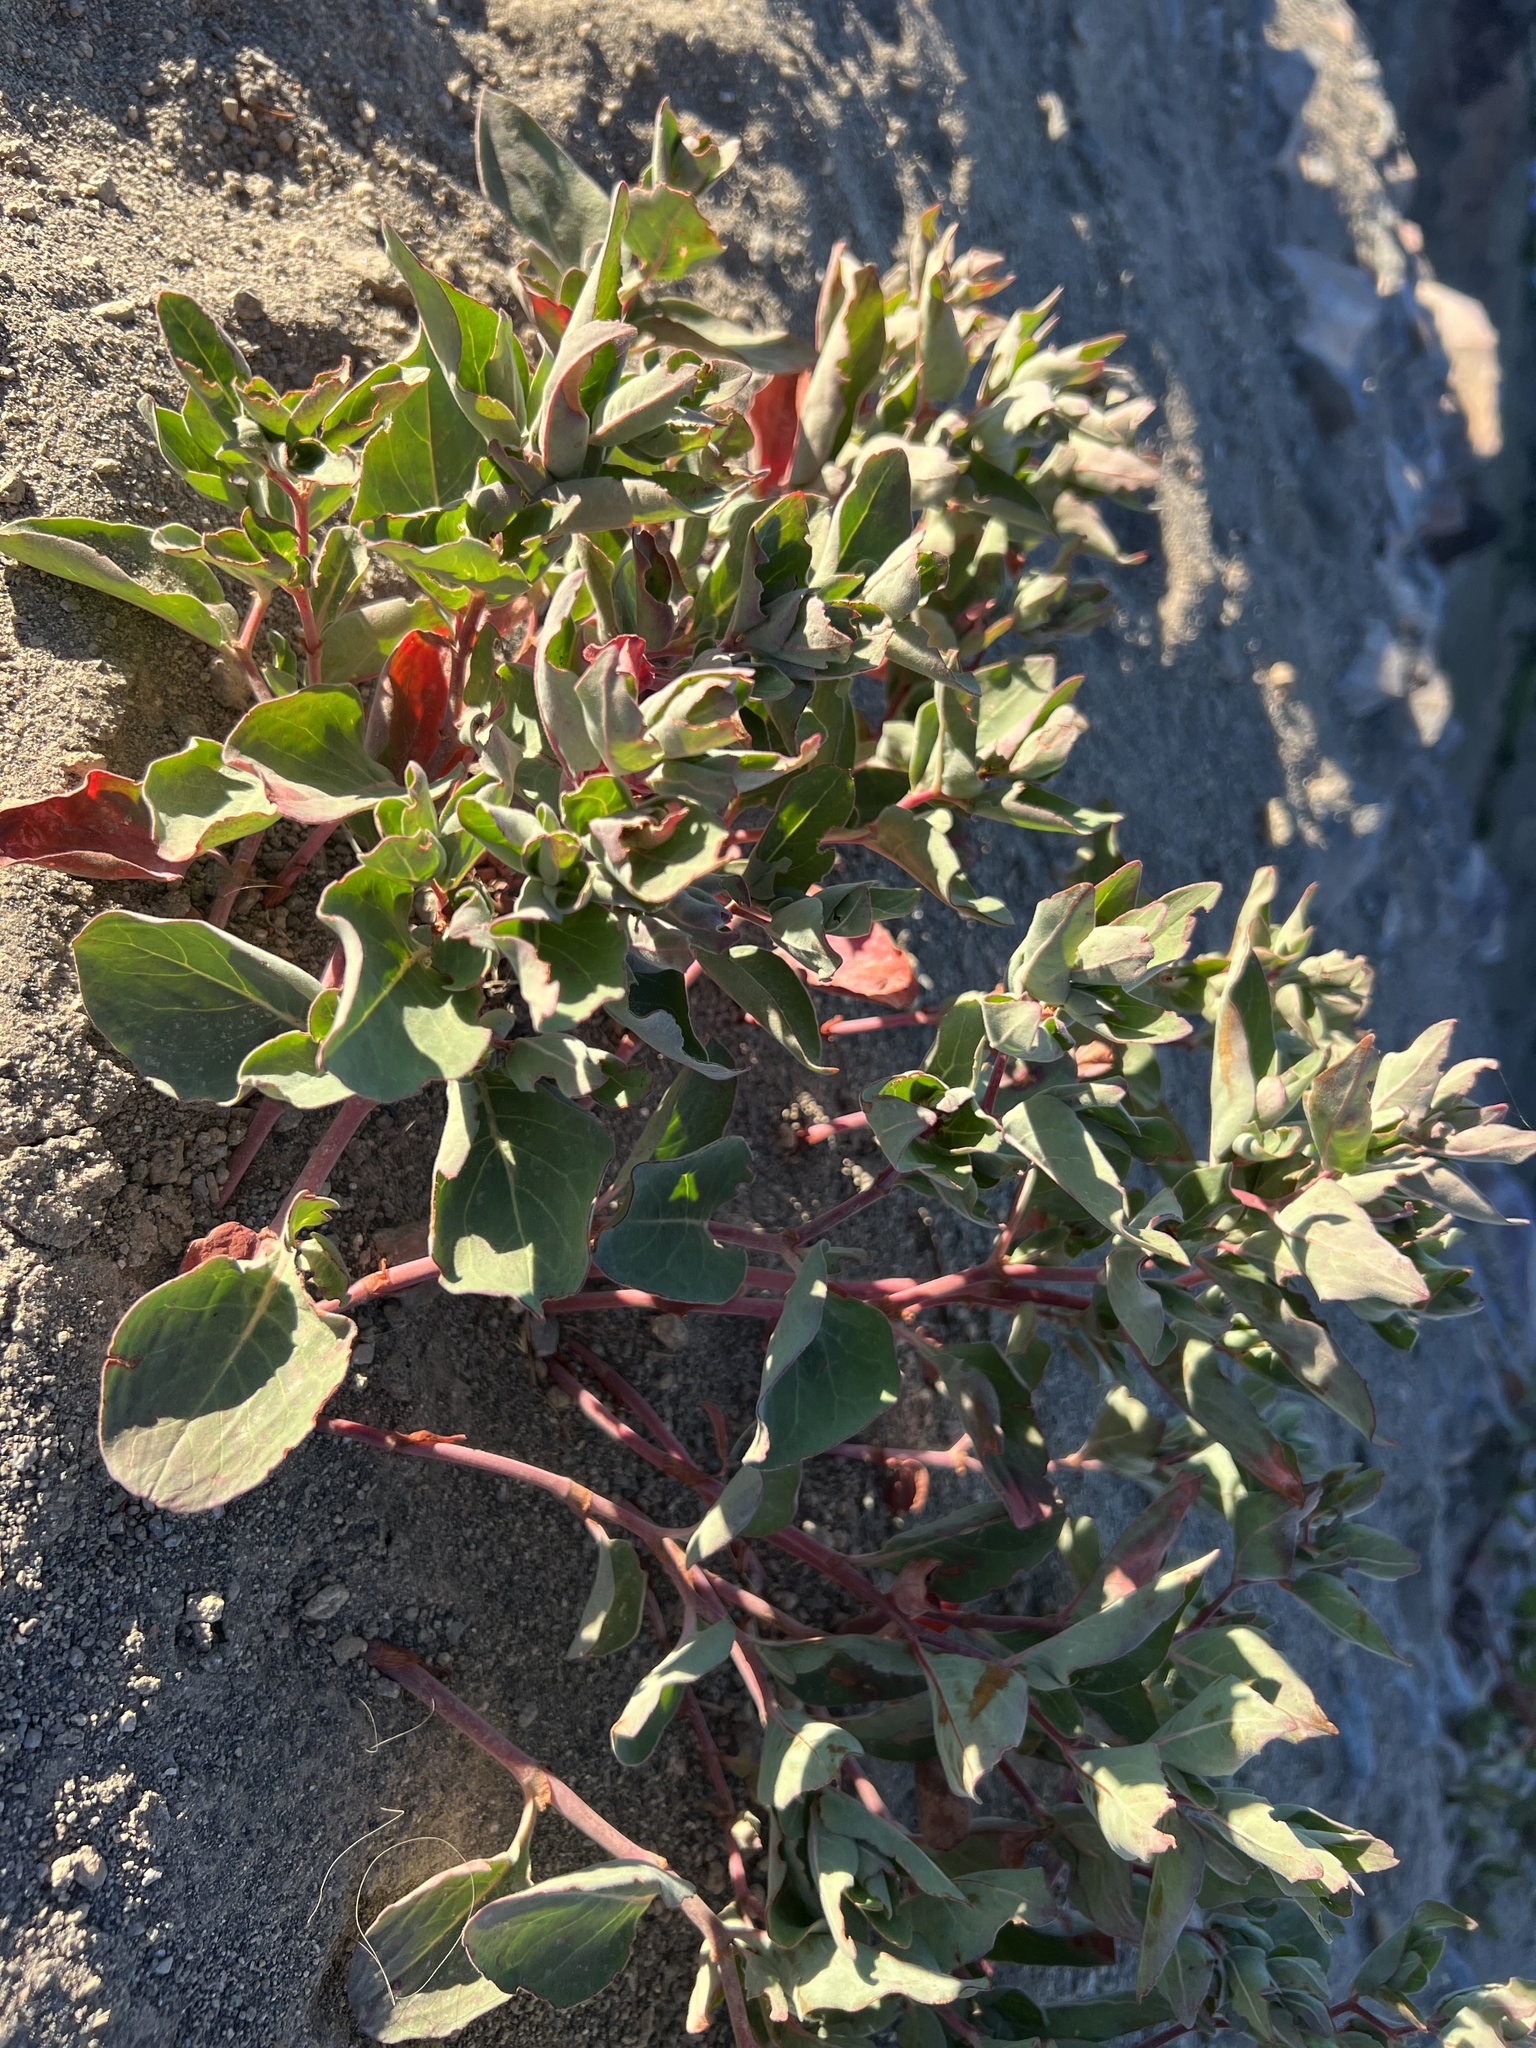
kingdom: Plantae
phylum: Tracheophyta
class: Magnoliopsida
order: Caryophyllales
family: Polygonaceae
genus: Koenigia
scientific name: Koenigia davisiae
